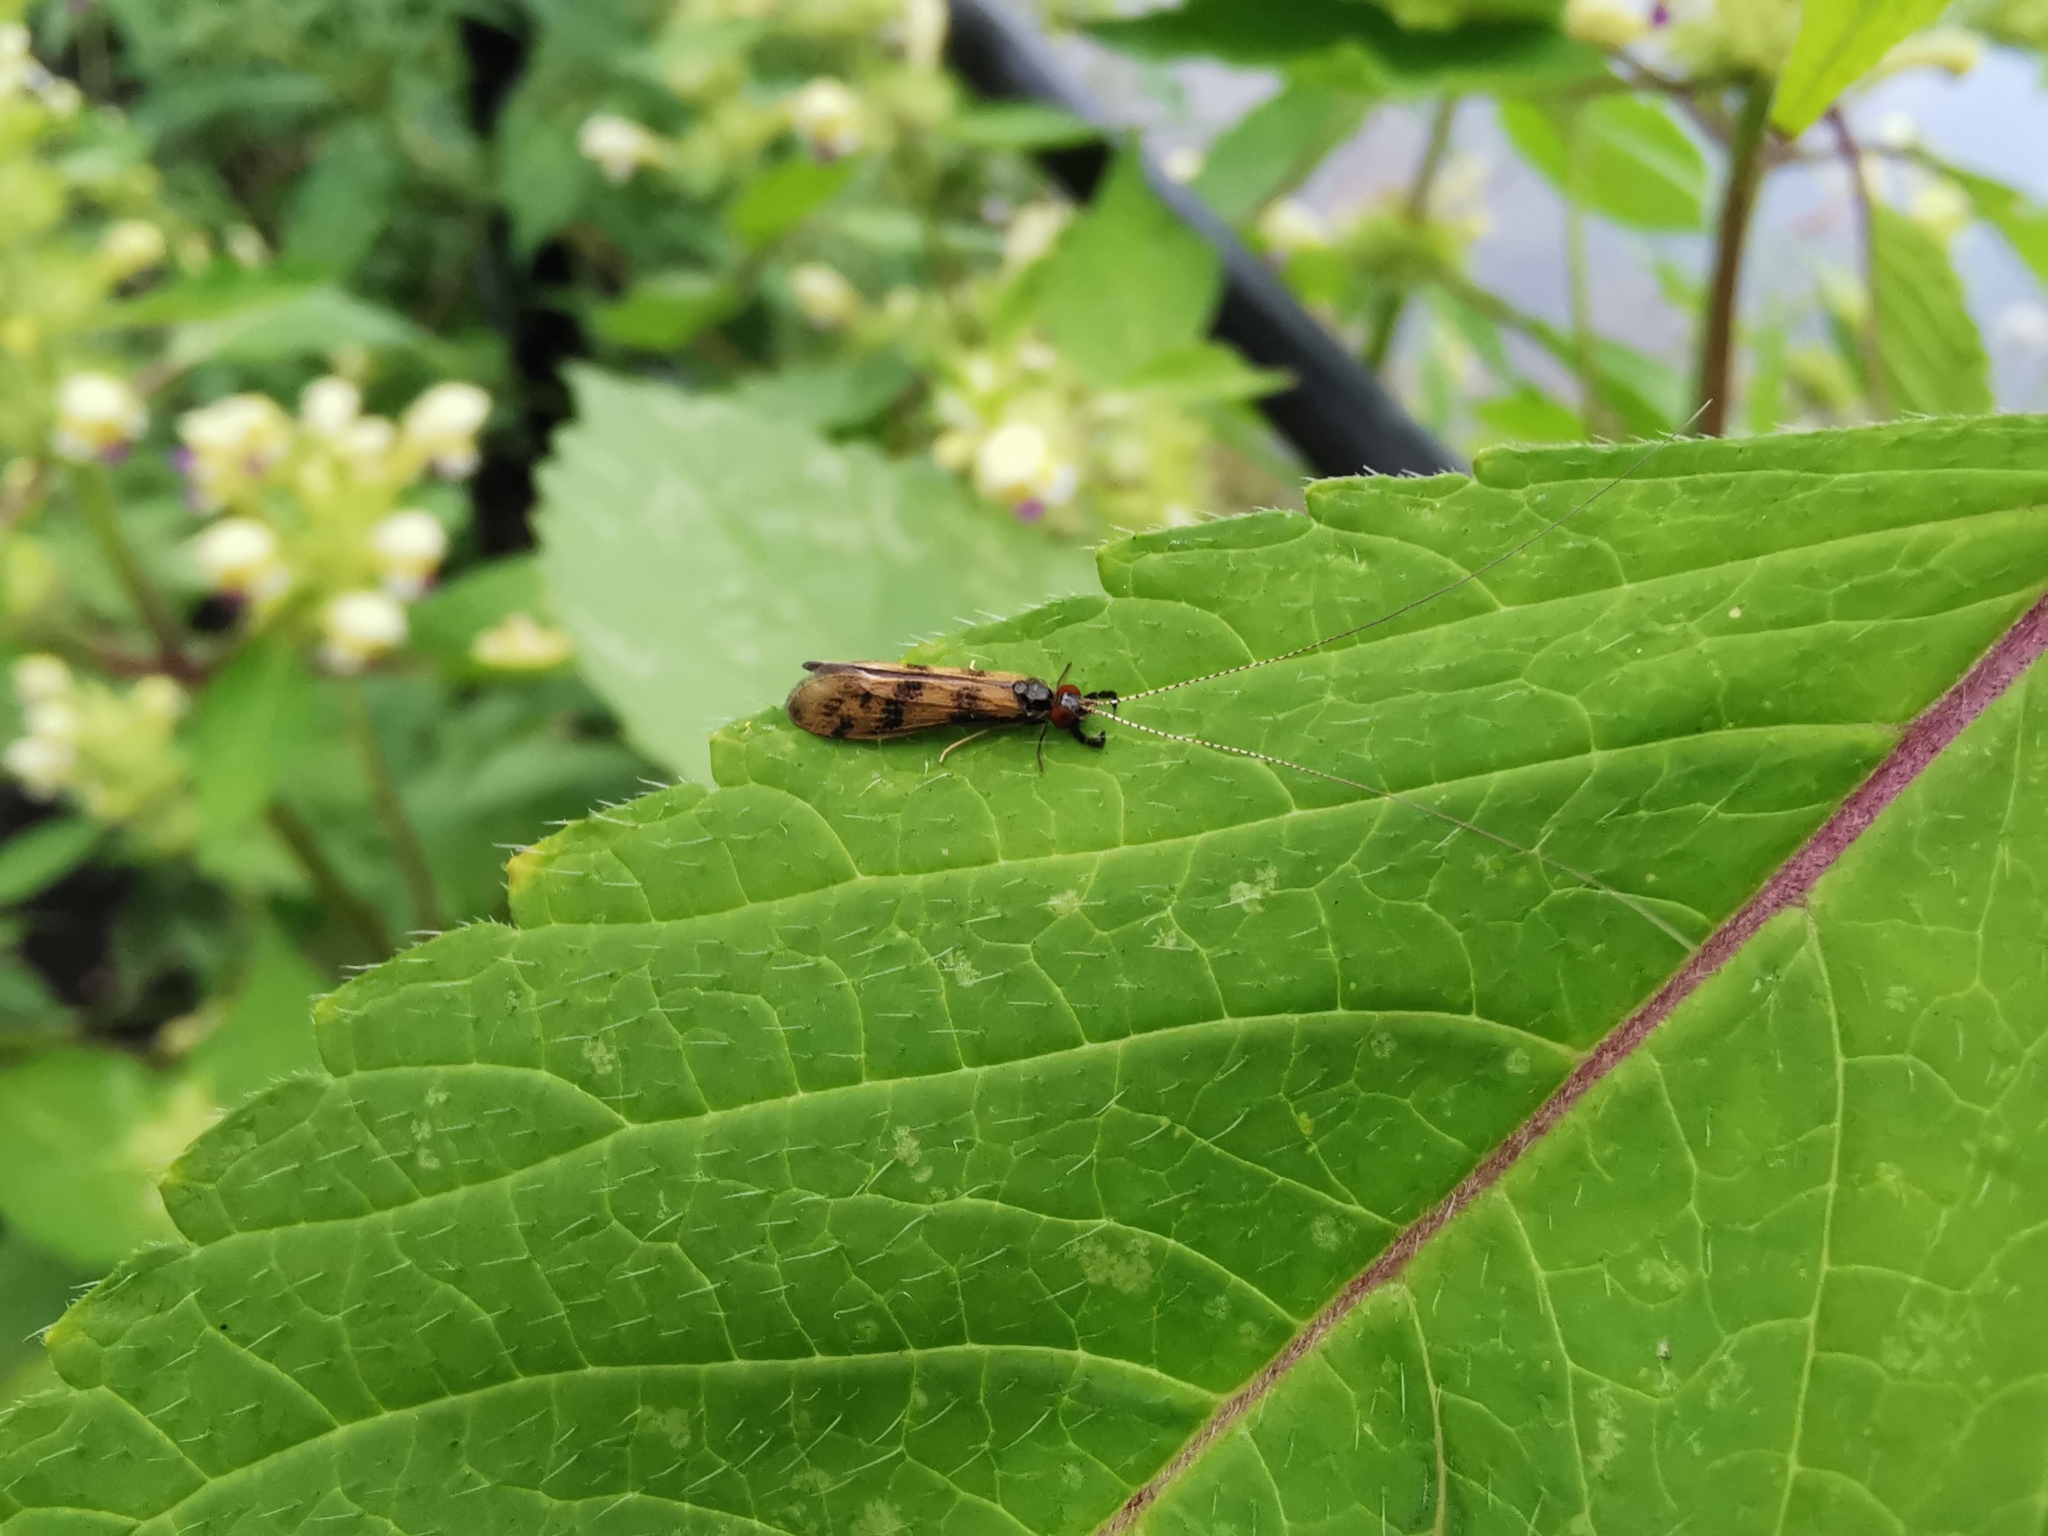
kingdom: Animalia
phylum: Arthropoda
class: Insecta
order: Trichoptera
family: Leptoceridae
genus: Mystacides
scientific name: Mystacides longicornis
